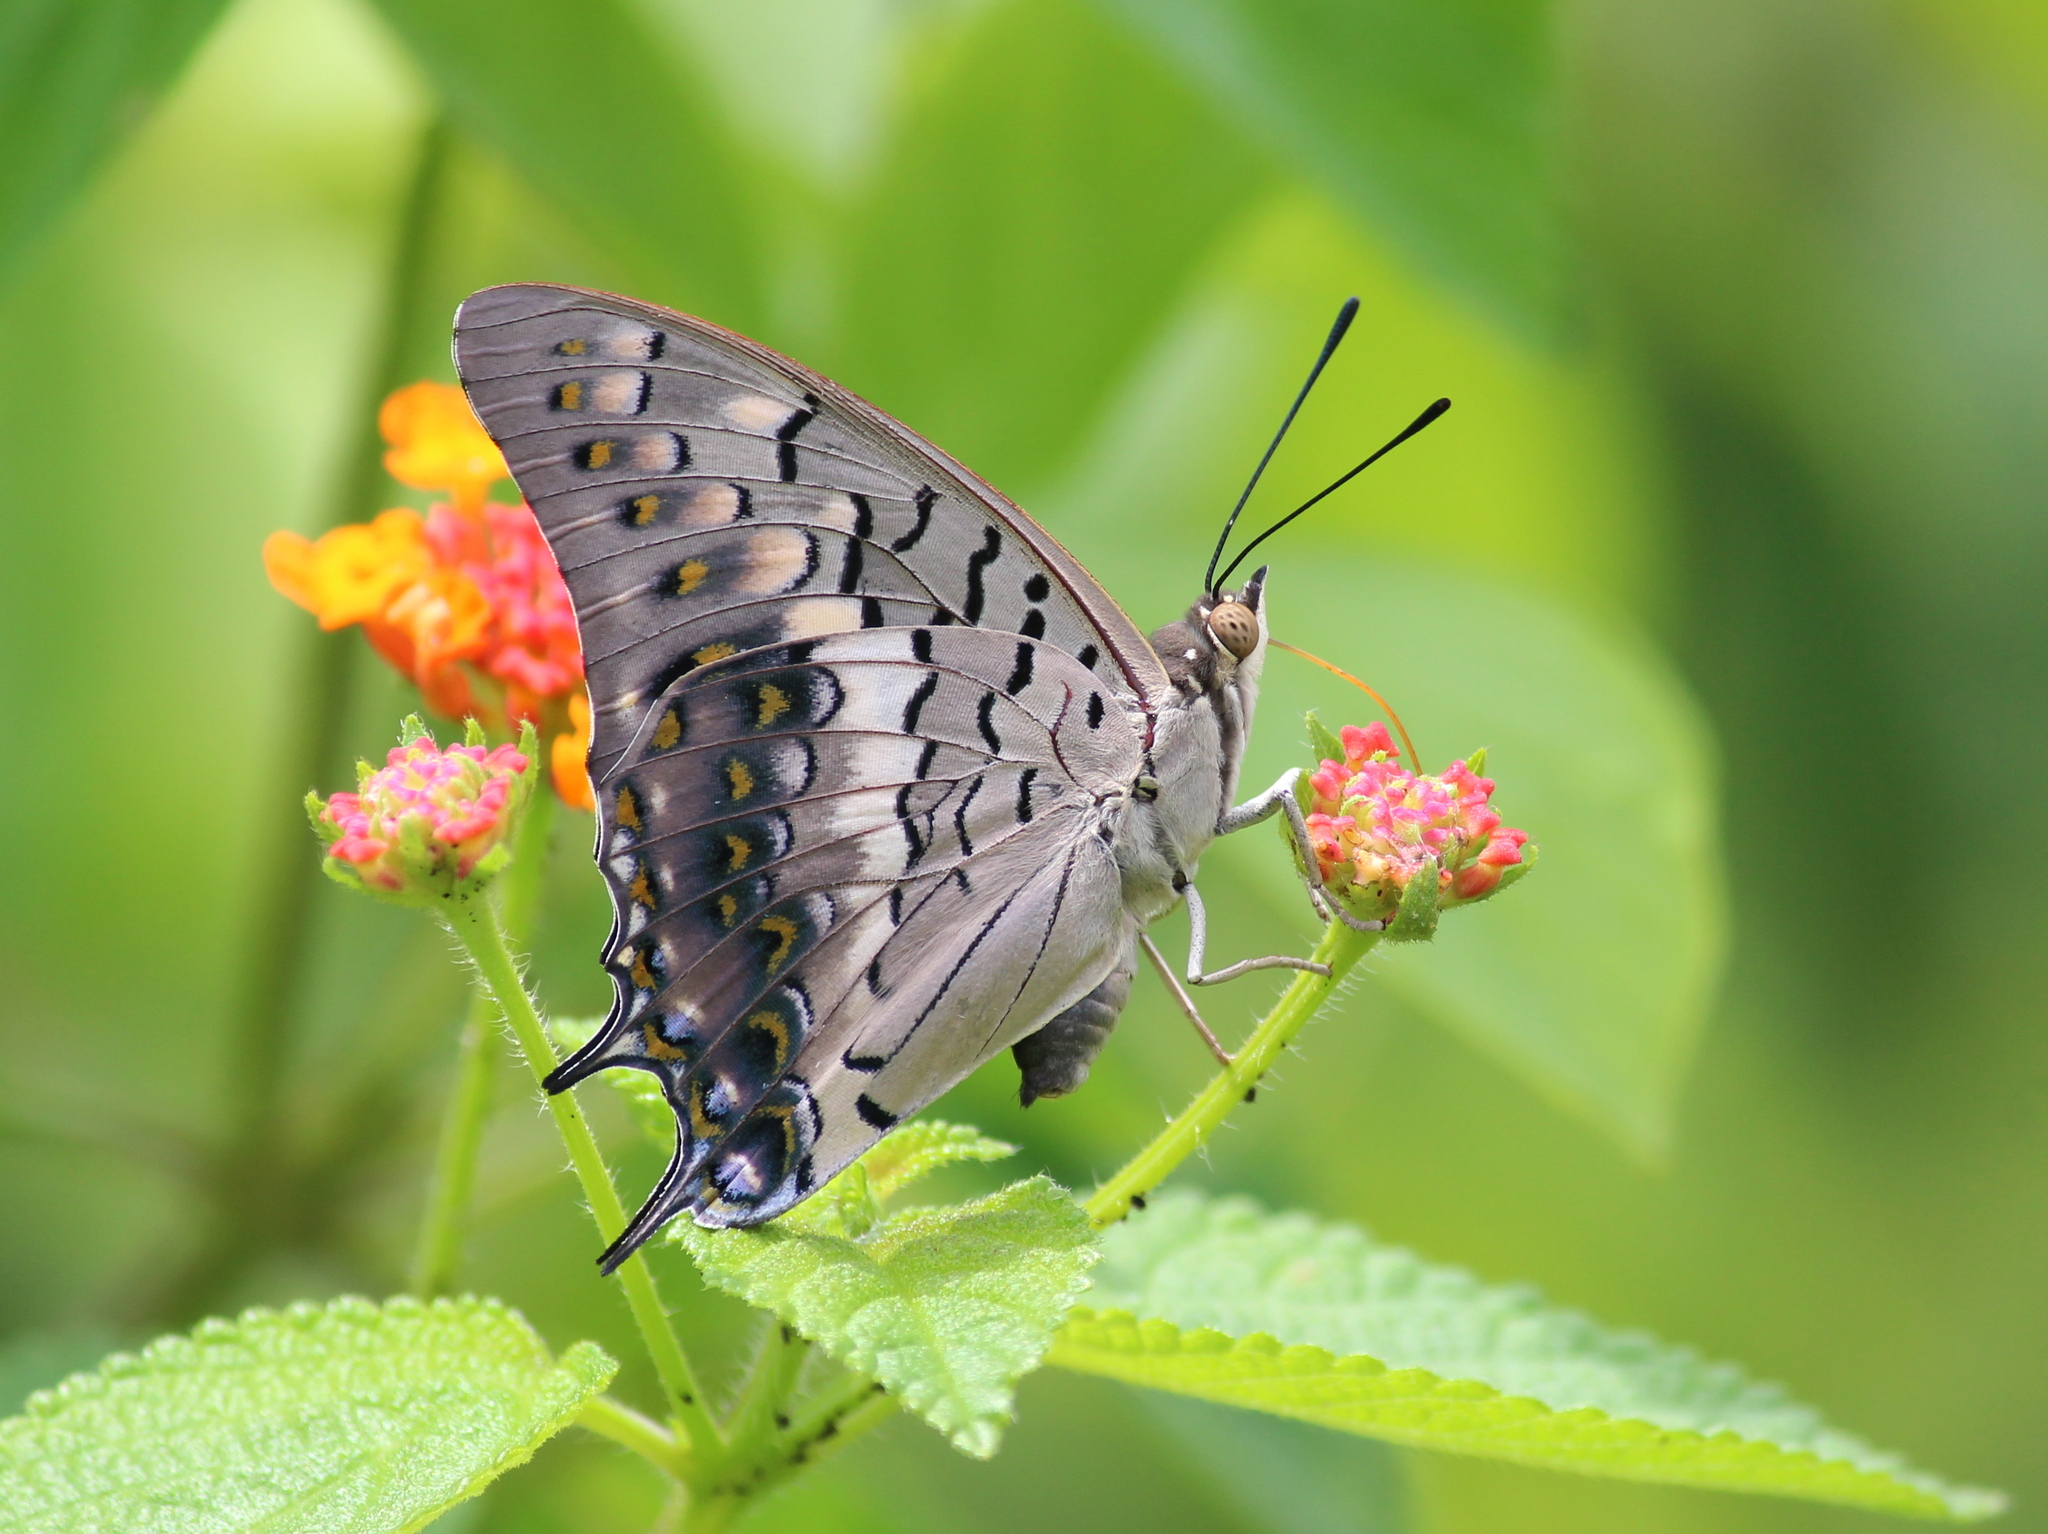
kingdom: Animalia
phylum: Arthropoda
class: Insecta
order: Lepidoptera
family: Nymphalidae
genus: Charaxes
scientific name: Charaxes solon
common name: Black rajah
